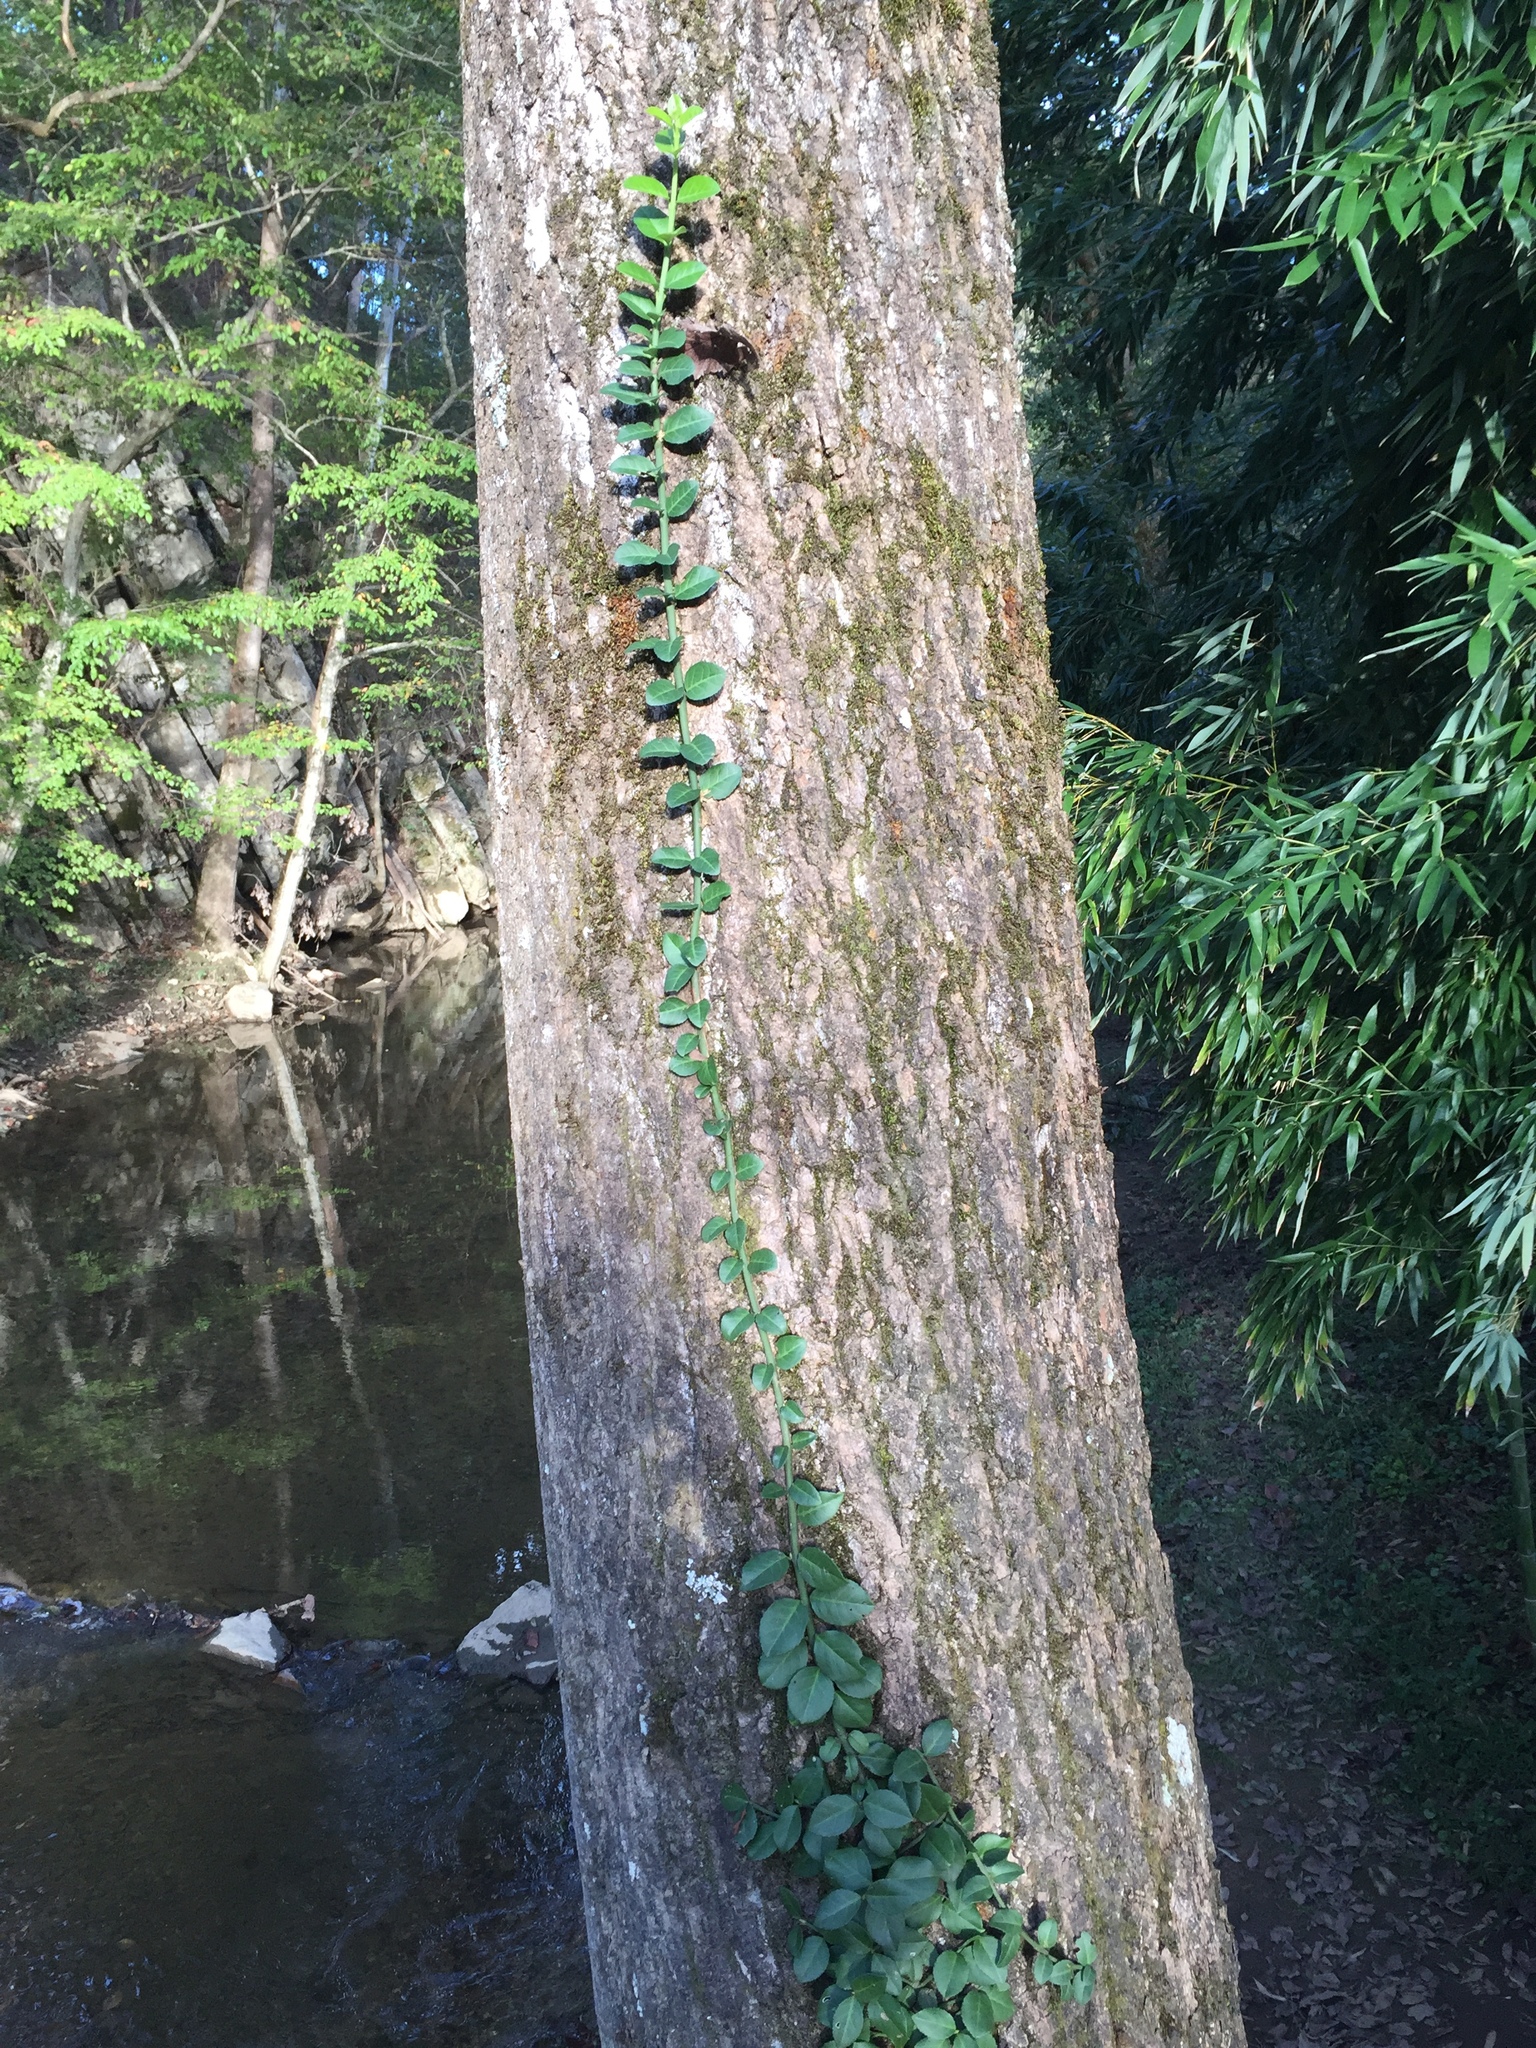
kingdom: Plantae
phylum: Tracheophyta
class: Magnoliopsida
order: Celastrales
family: Celastraceae
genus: Euonymus
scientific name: Euonymus fortunei
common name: Climbing euonymus
